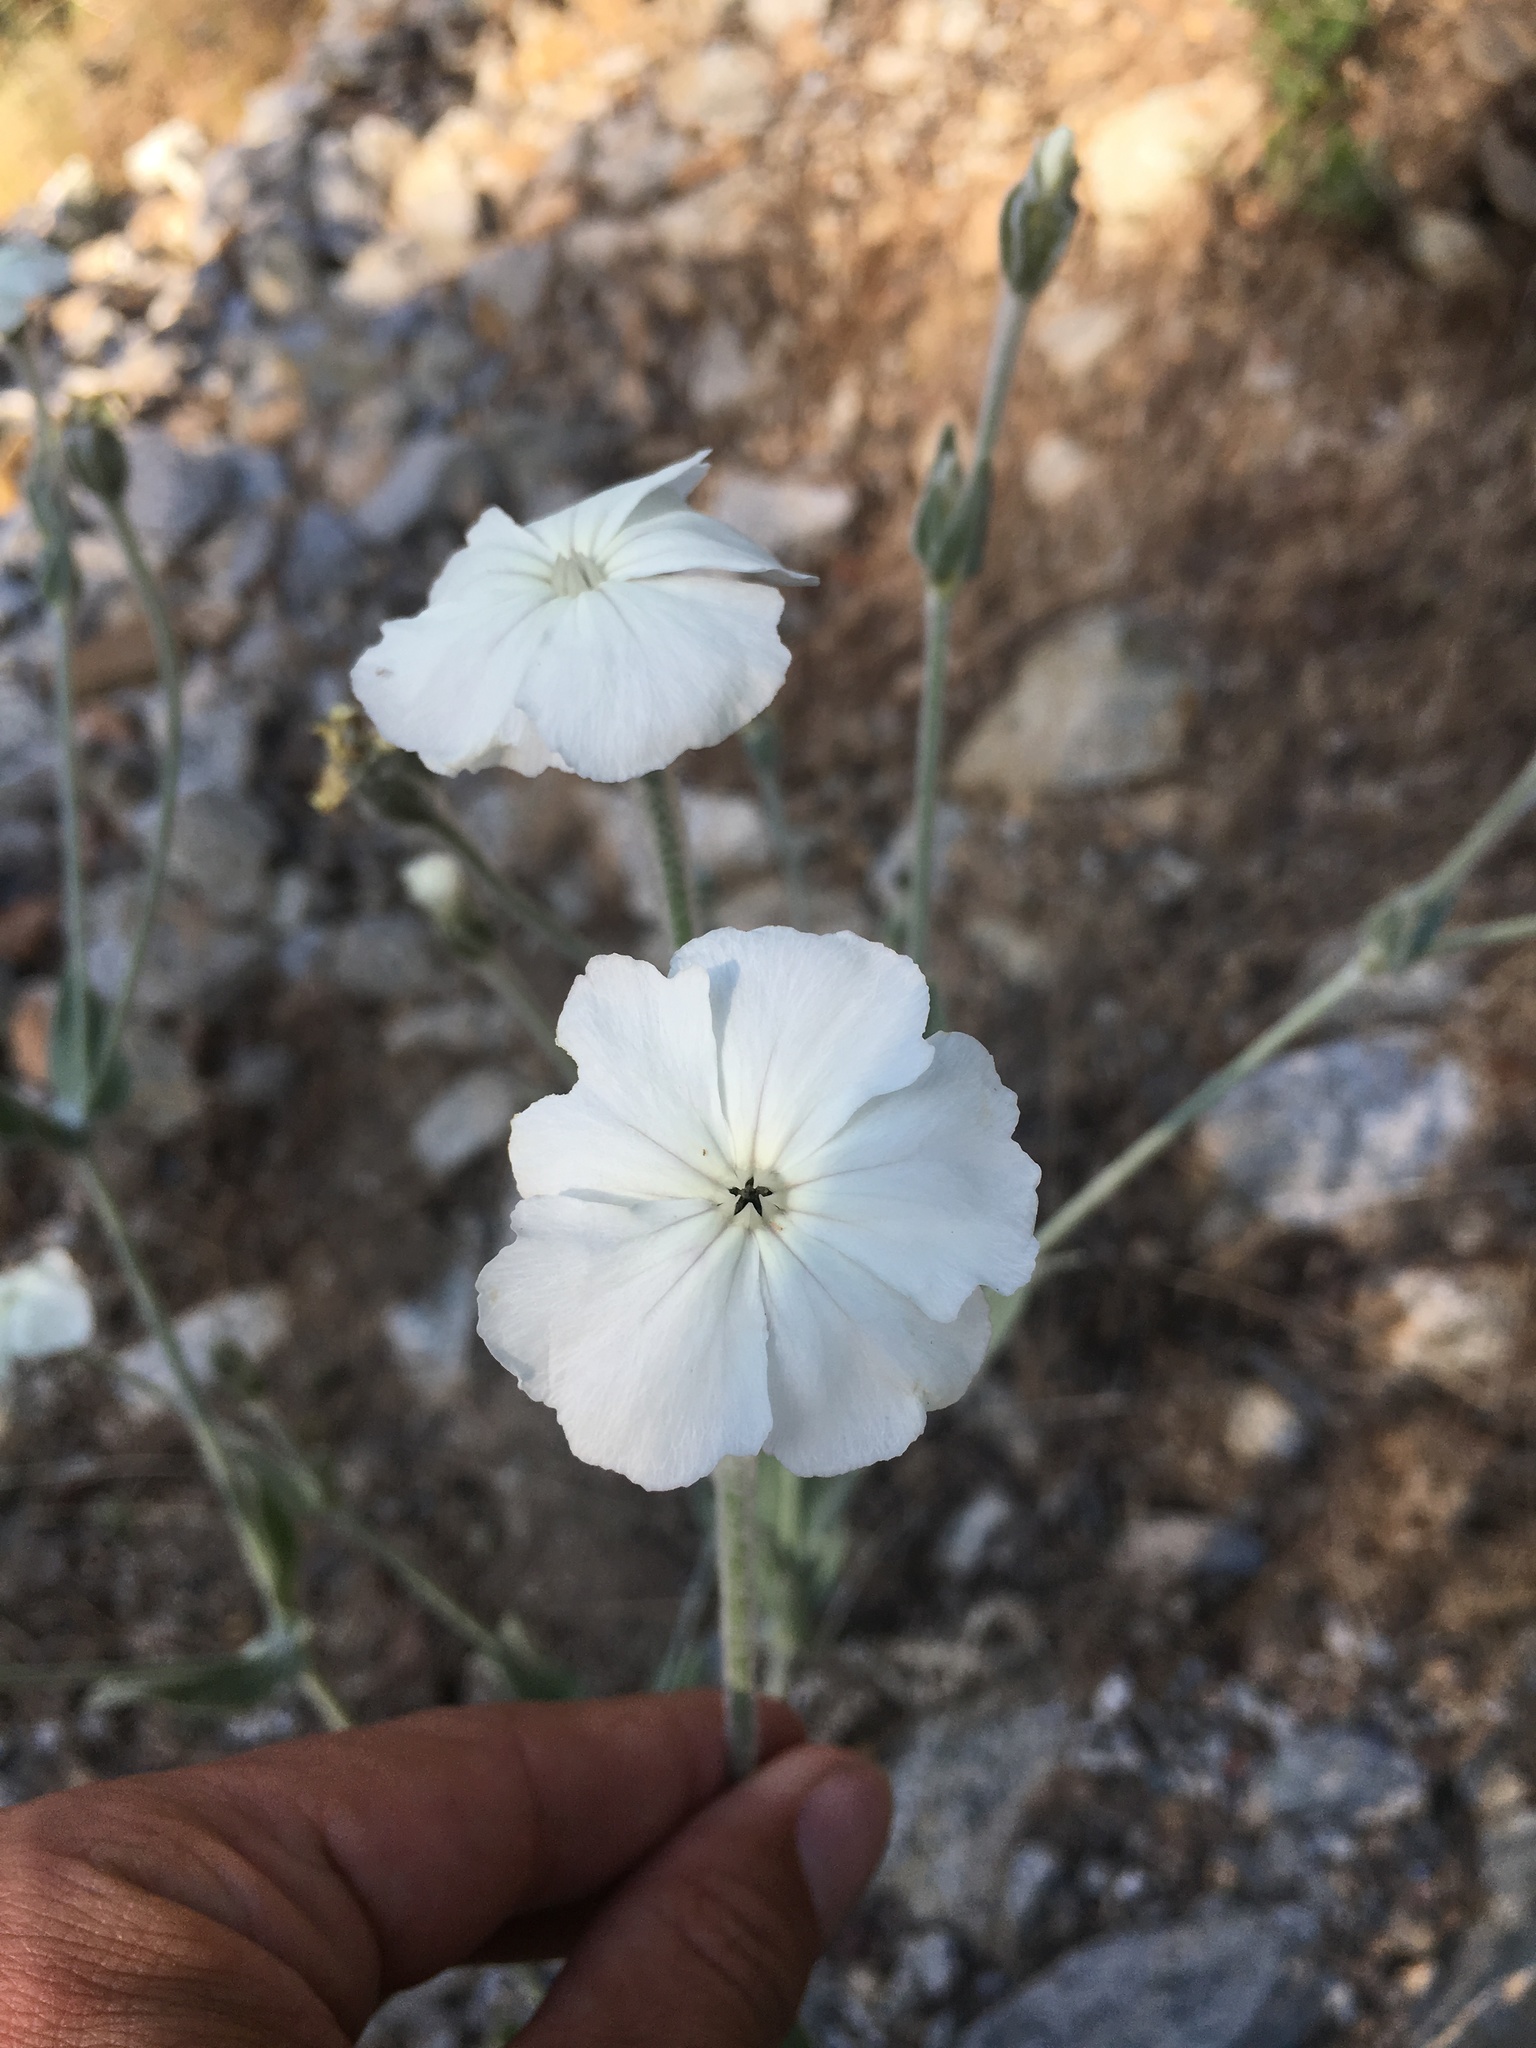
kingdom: Plantae
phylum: Tracheophyta
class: Magnoliopsida
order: Caryophyllales
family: Caryophyllaceae
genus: Silene
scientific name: Silene coronaria
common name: Rose campion
